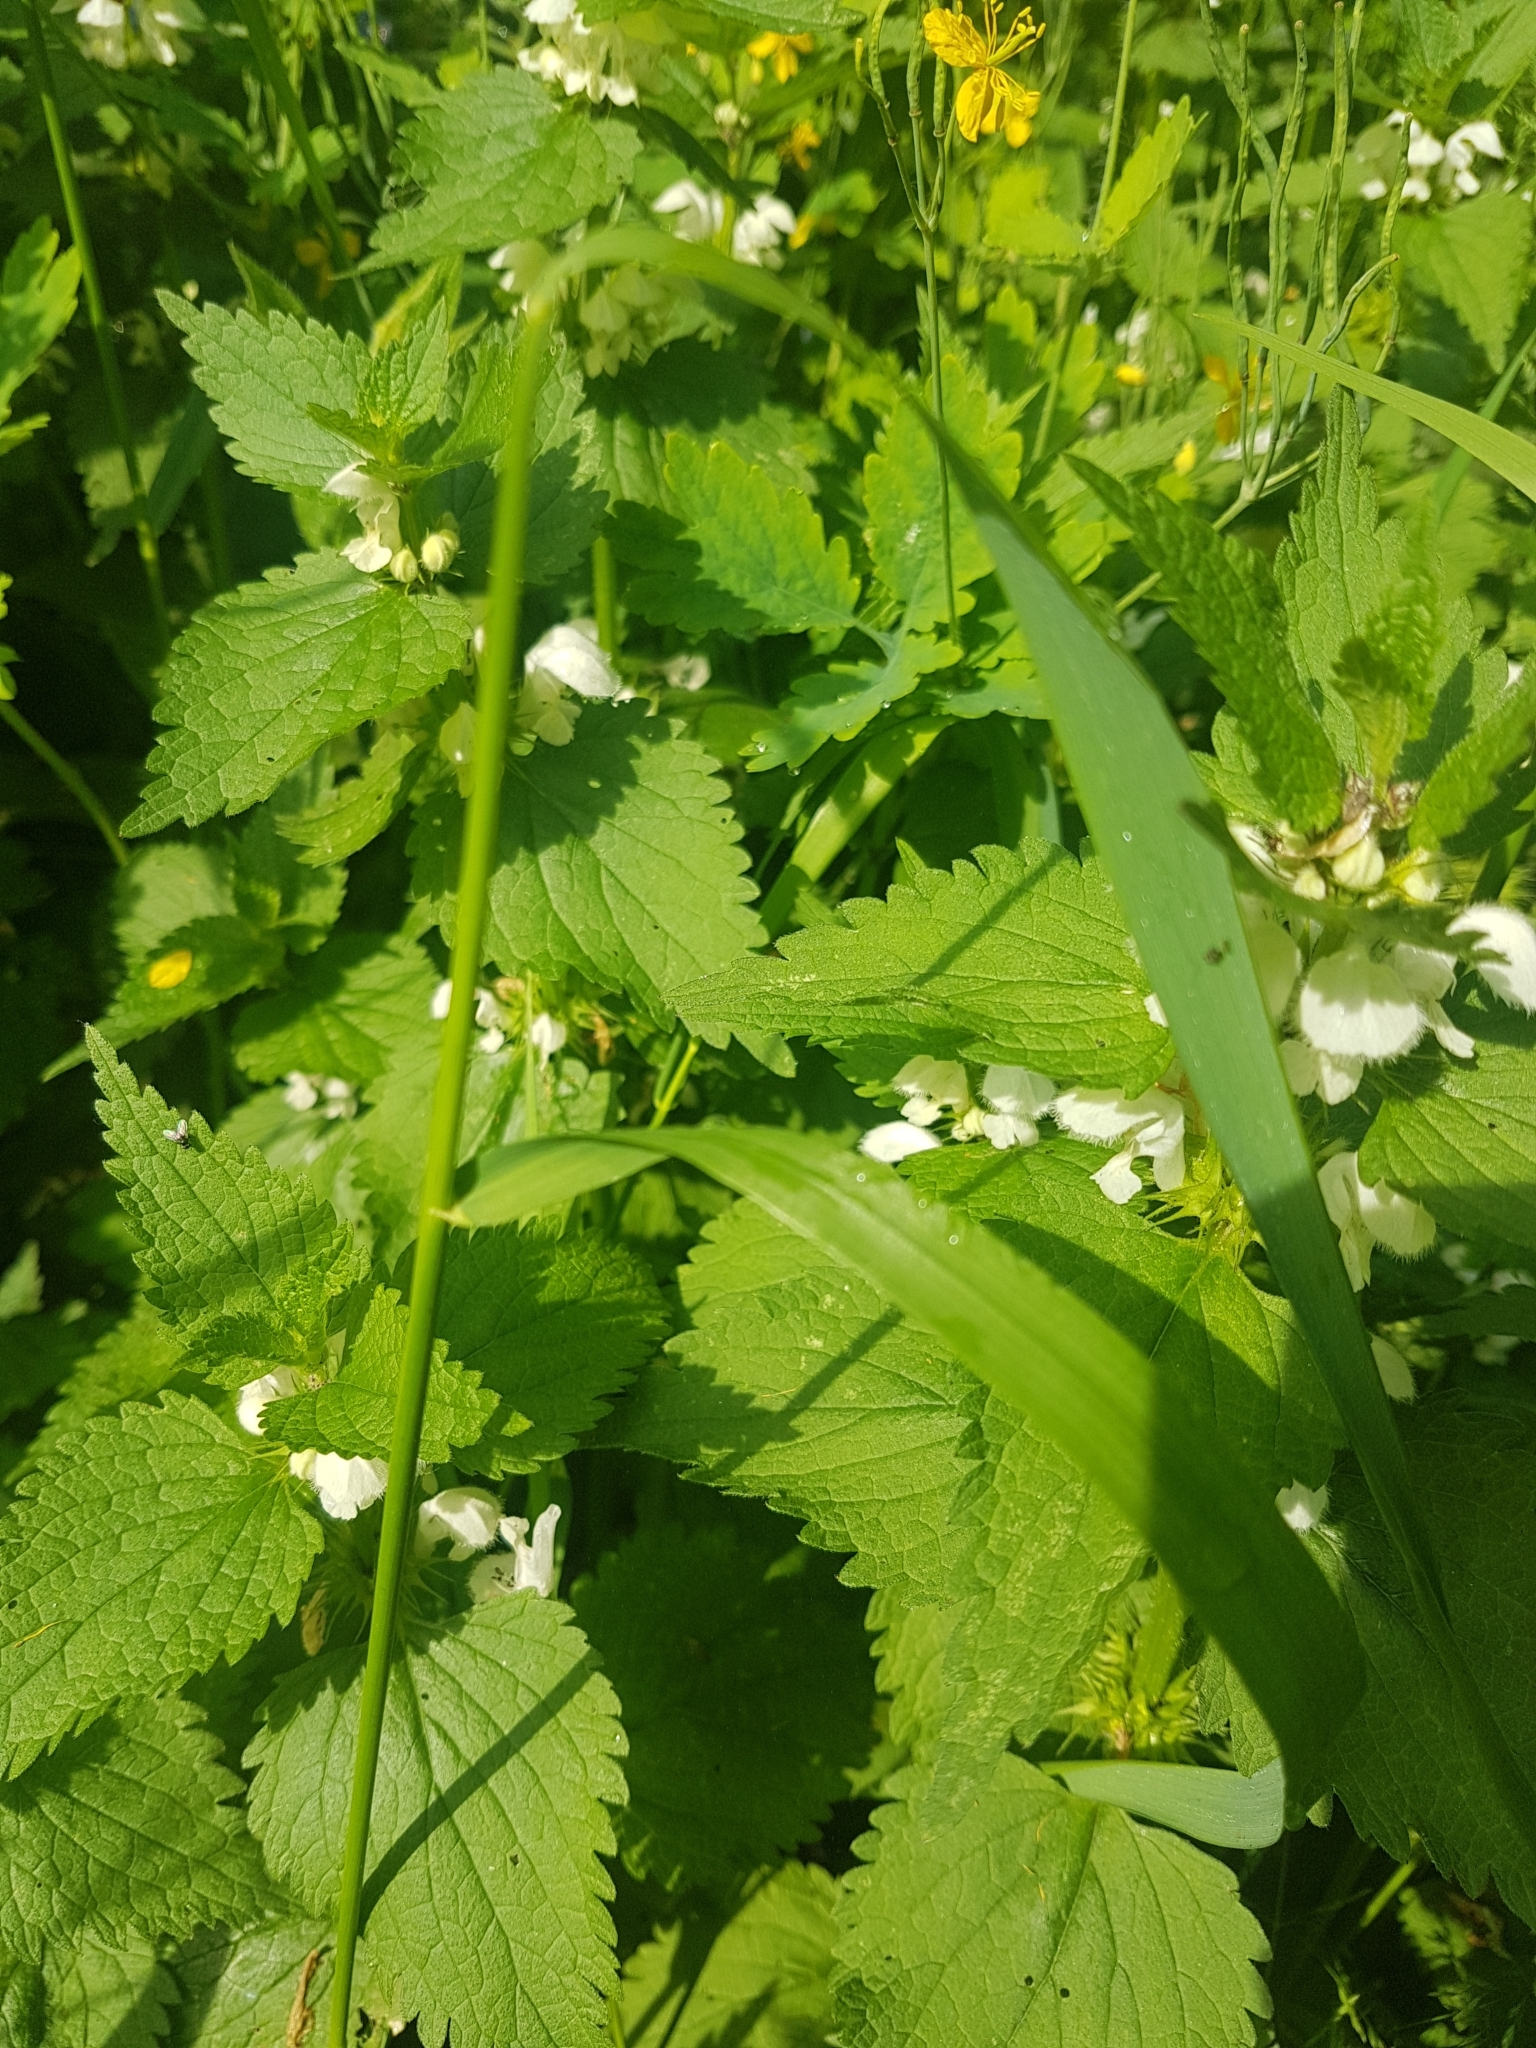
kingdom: Plantae
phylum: Tracheophyta
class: Magnoliopsida
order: Lamiales
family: Lamiaceae
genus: Lamium
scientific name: Lamium album
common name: White dead-nettle
